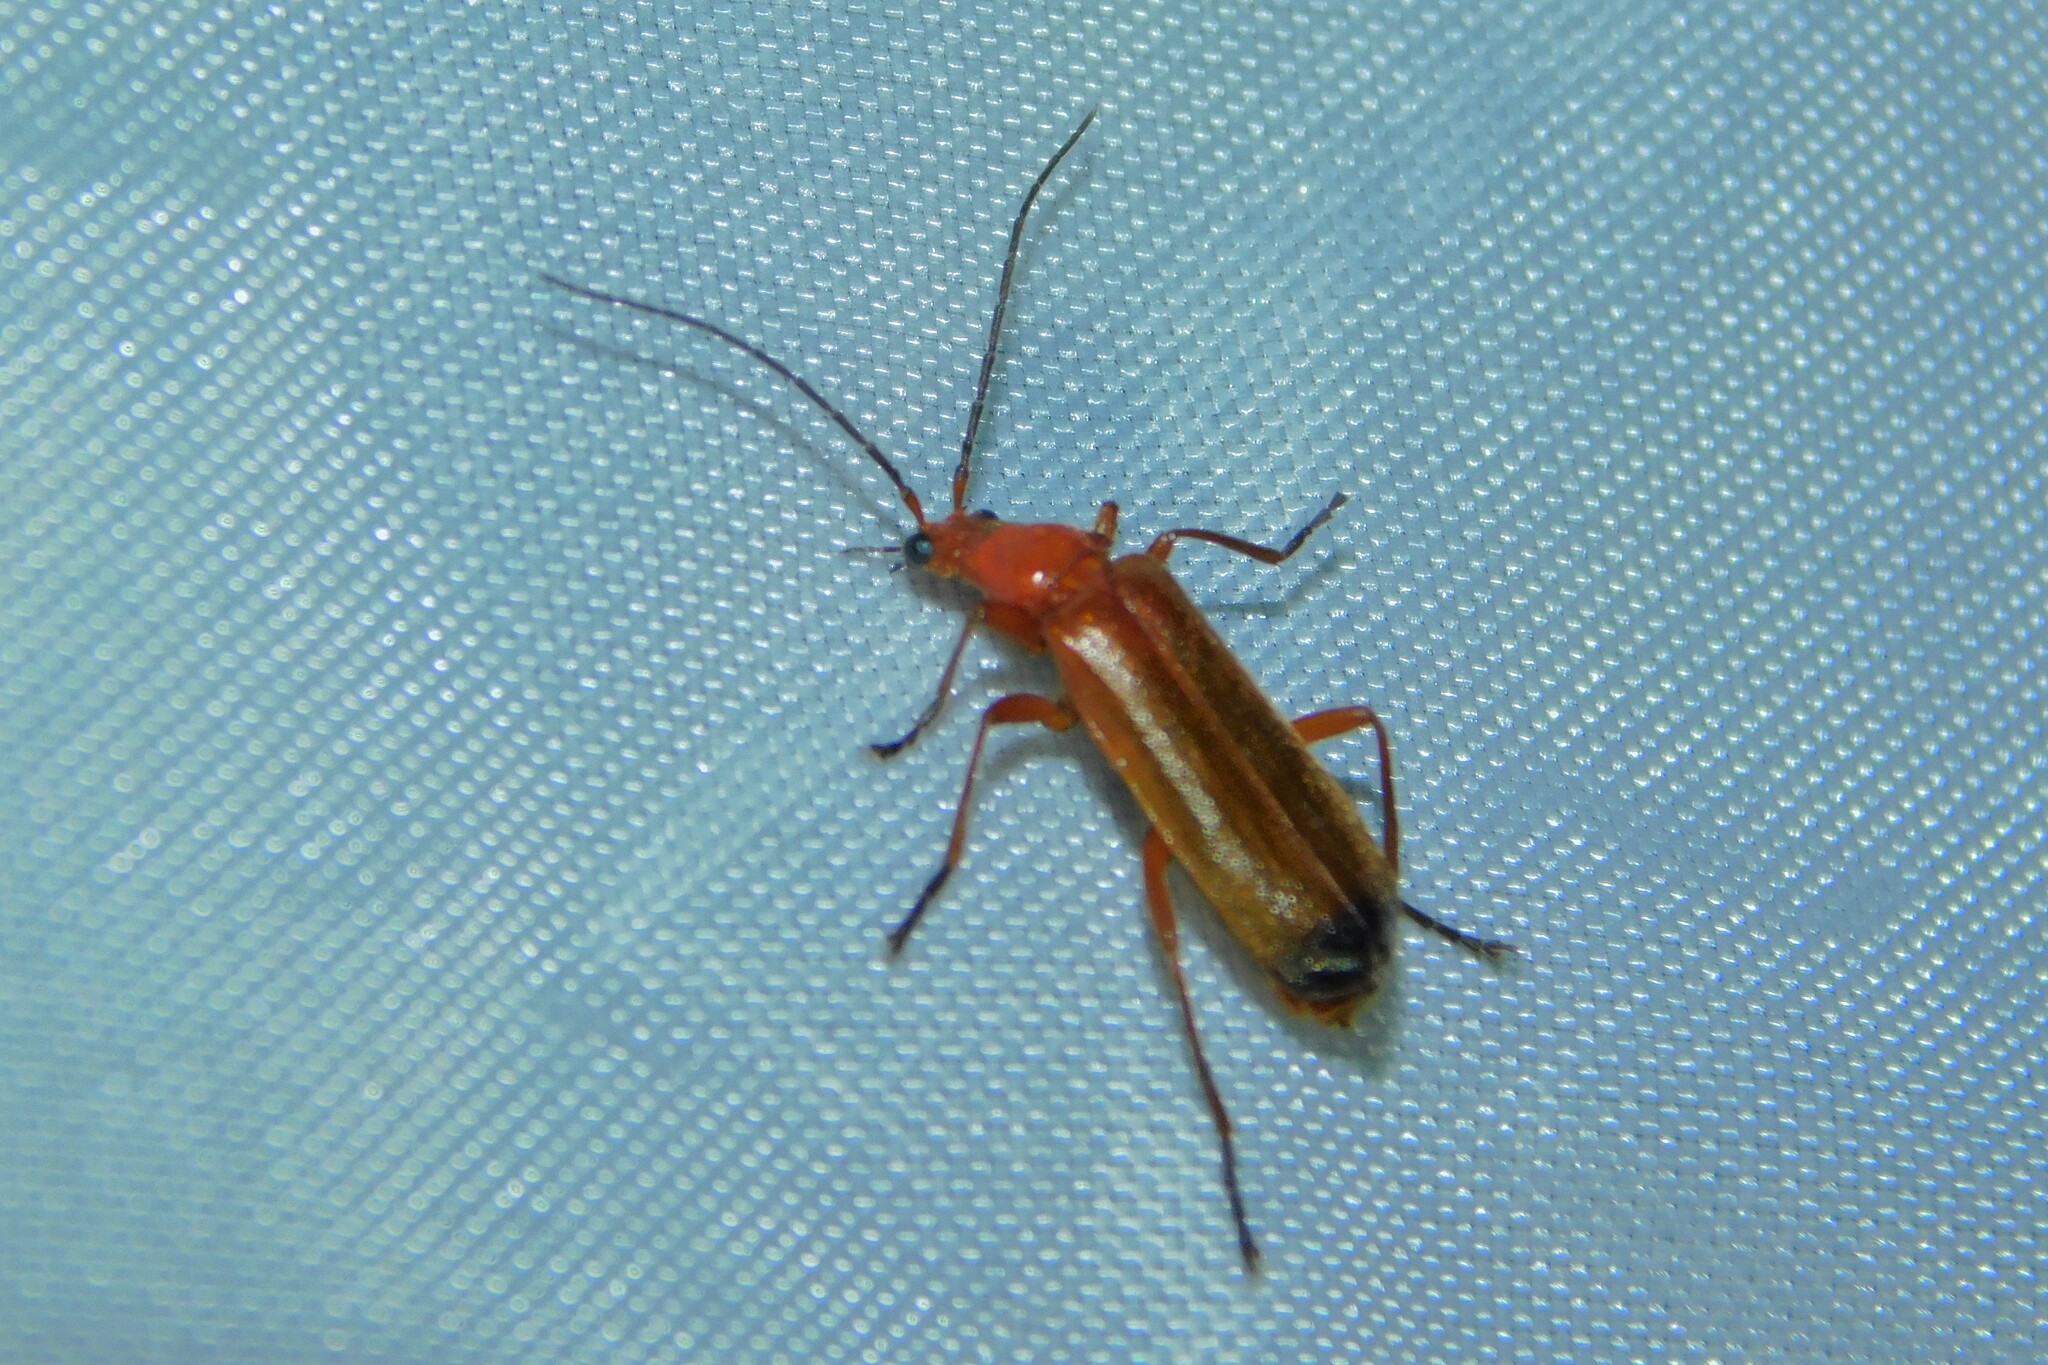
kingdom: Animalia
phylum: Arthropoda
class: Insecta
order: Coleoptera
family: Cantharidae
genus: Rhagonycha
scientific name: Rhagonycha fulva
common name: Common red soldier beetle
